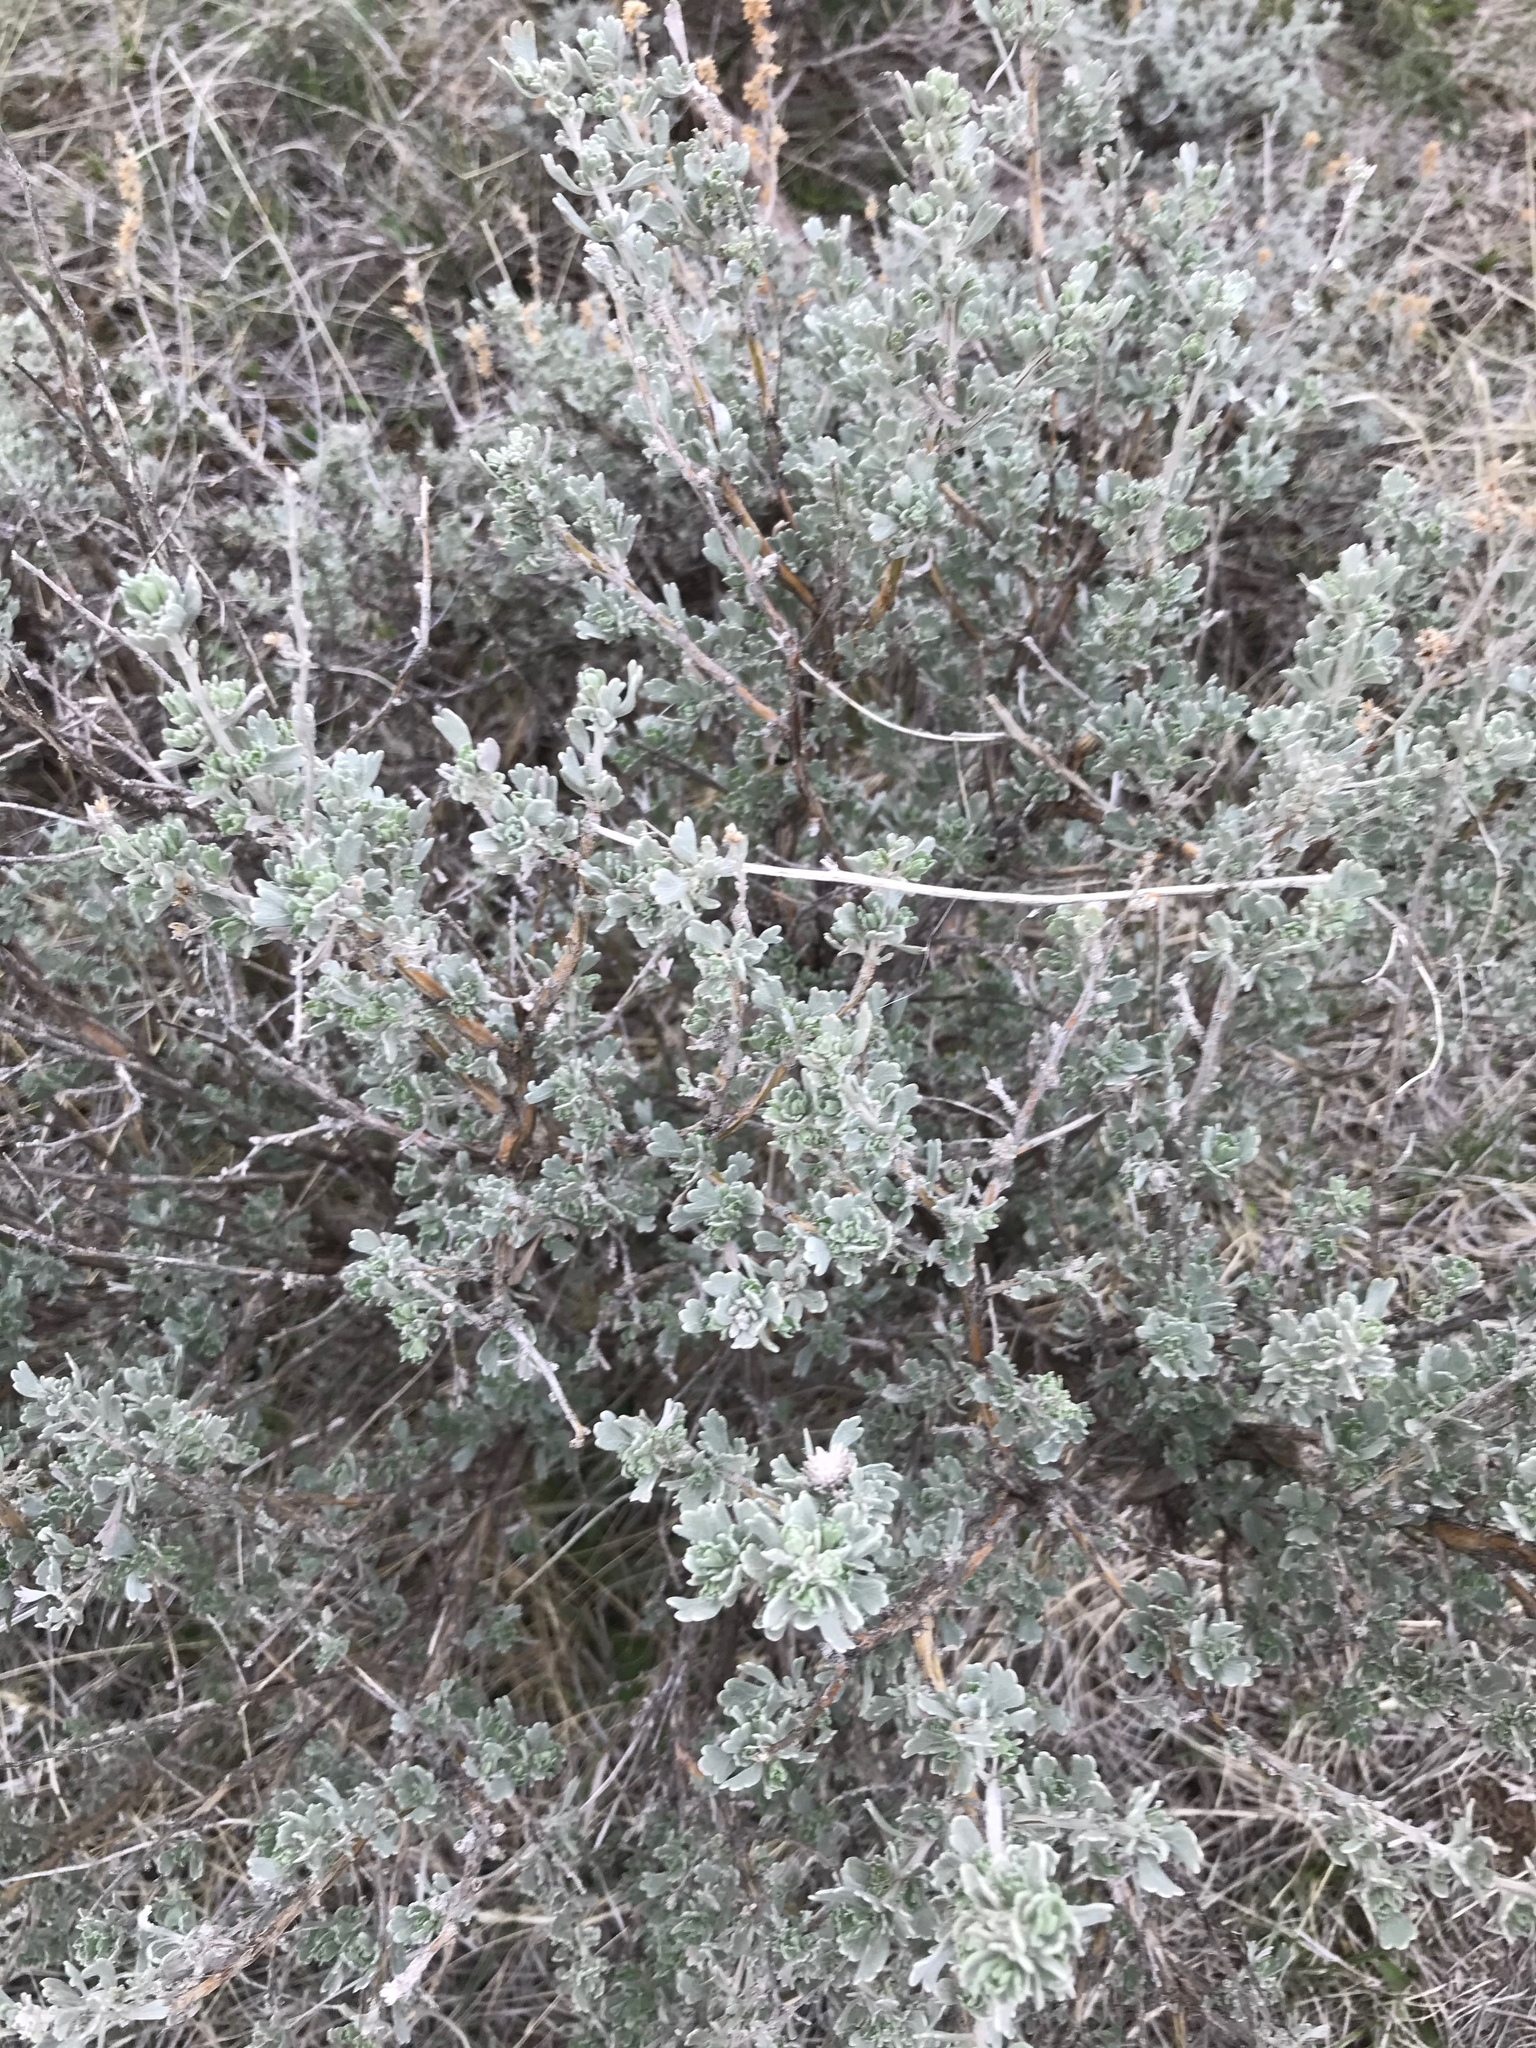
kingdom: Plantae
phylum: Tracheophyta
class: Magnoliopsida
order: Asterales
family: Asteraceae
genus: Artemisia
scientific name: Artemisia tridentata
